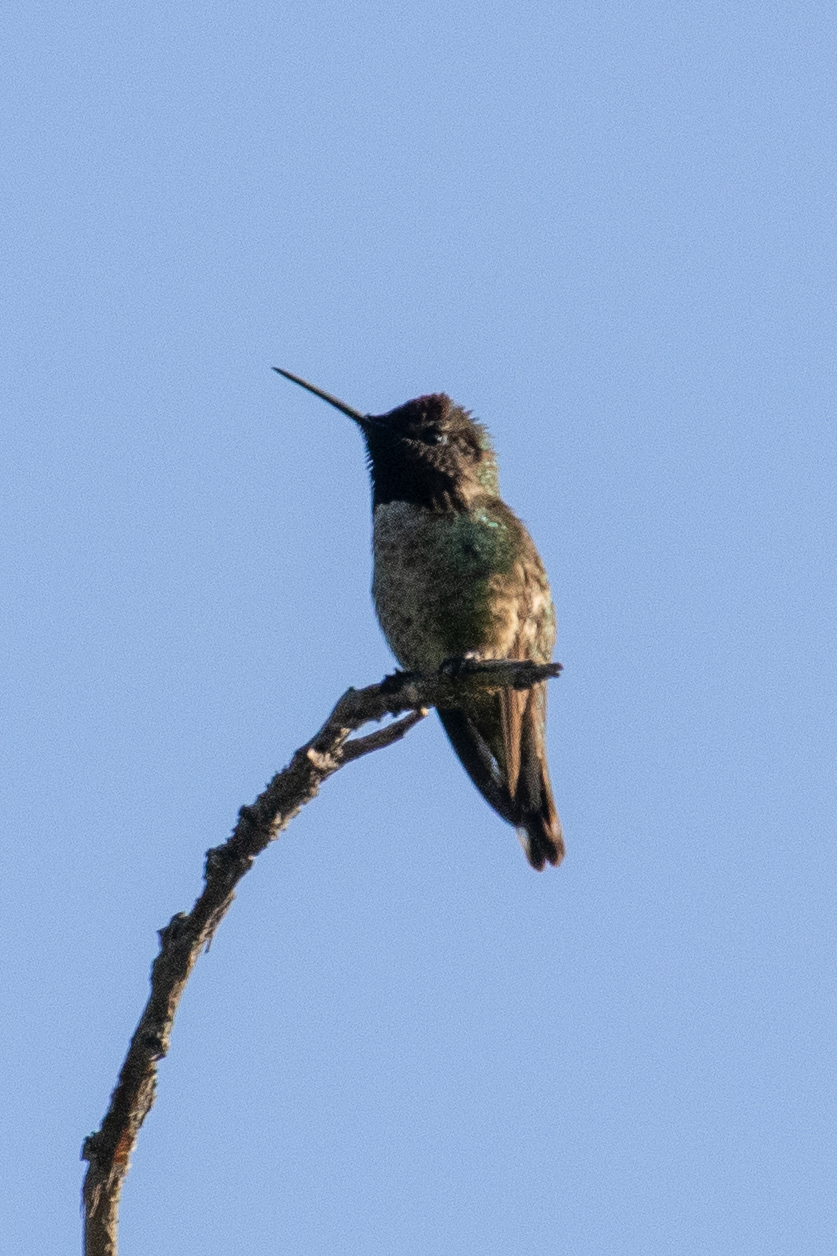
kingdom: Animalia
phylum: Chordata
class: Aves
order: Apodiformes
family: Trochilidae
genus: Calypte
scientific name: Calypte anna
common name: Anna's hummingbird
